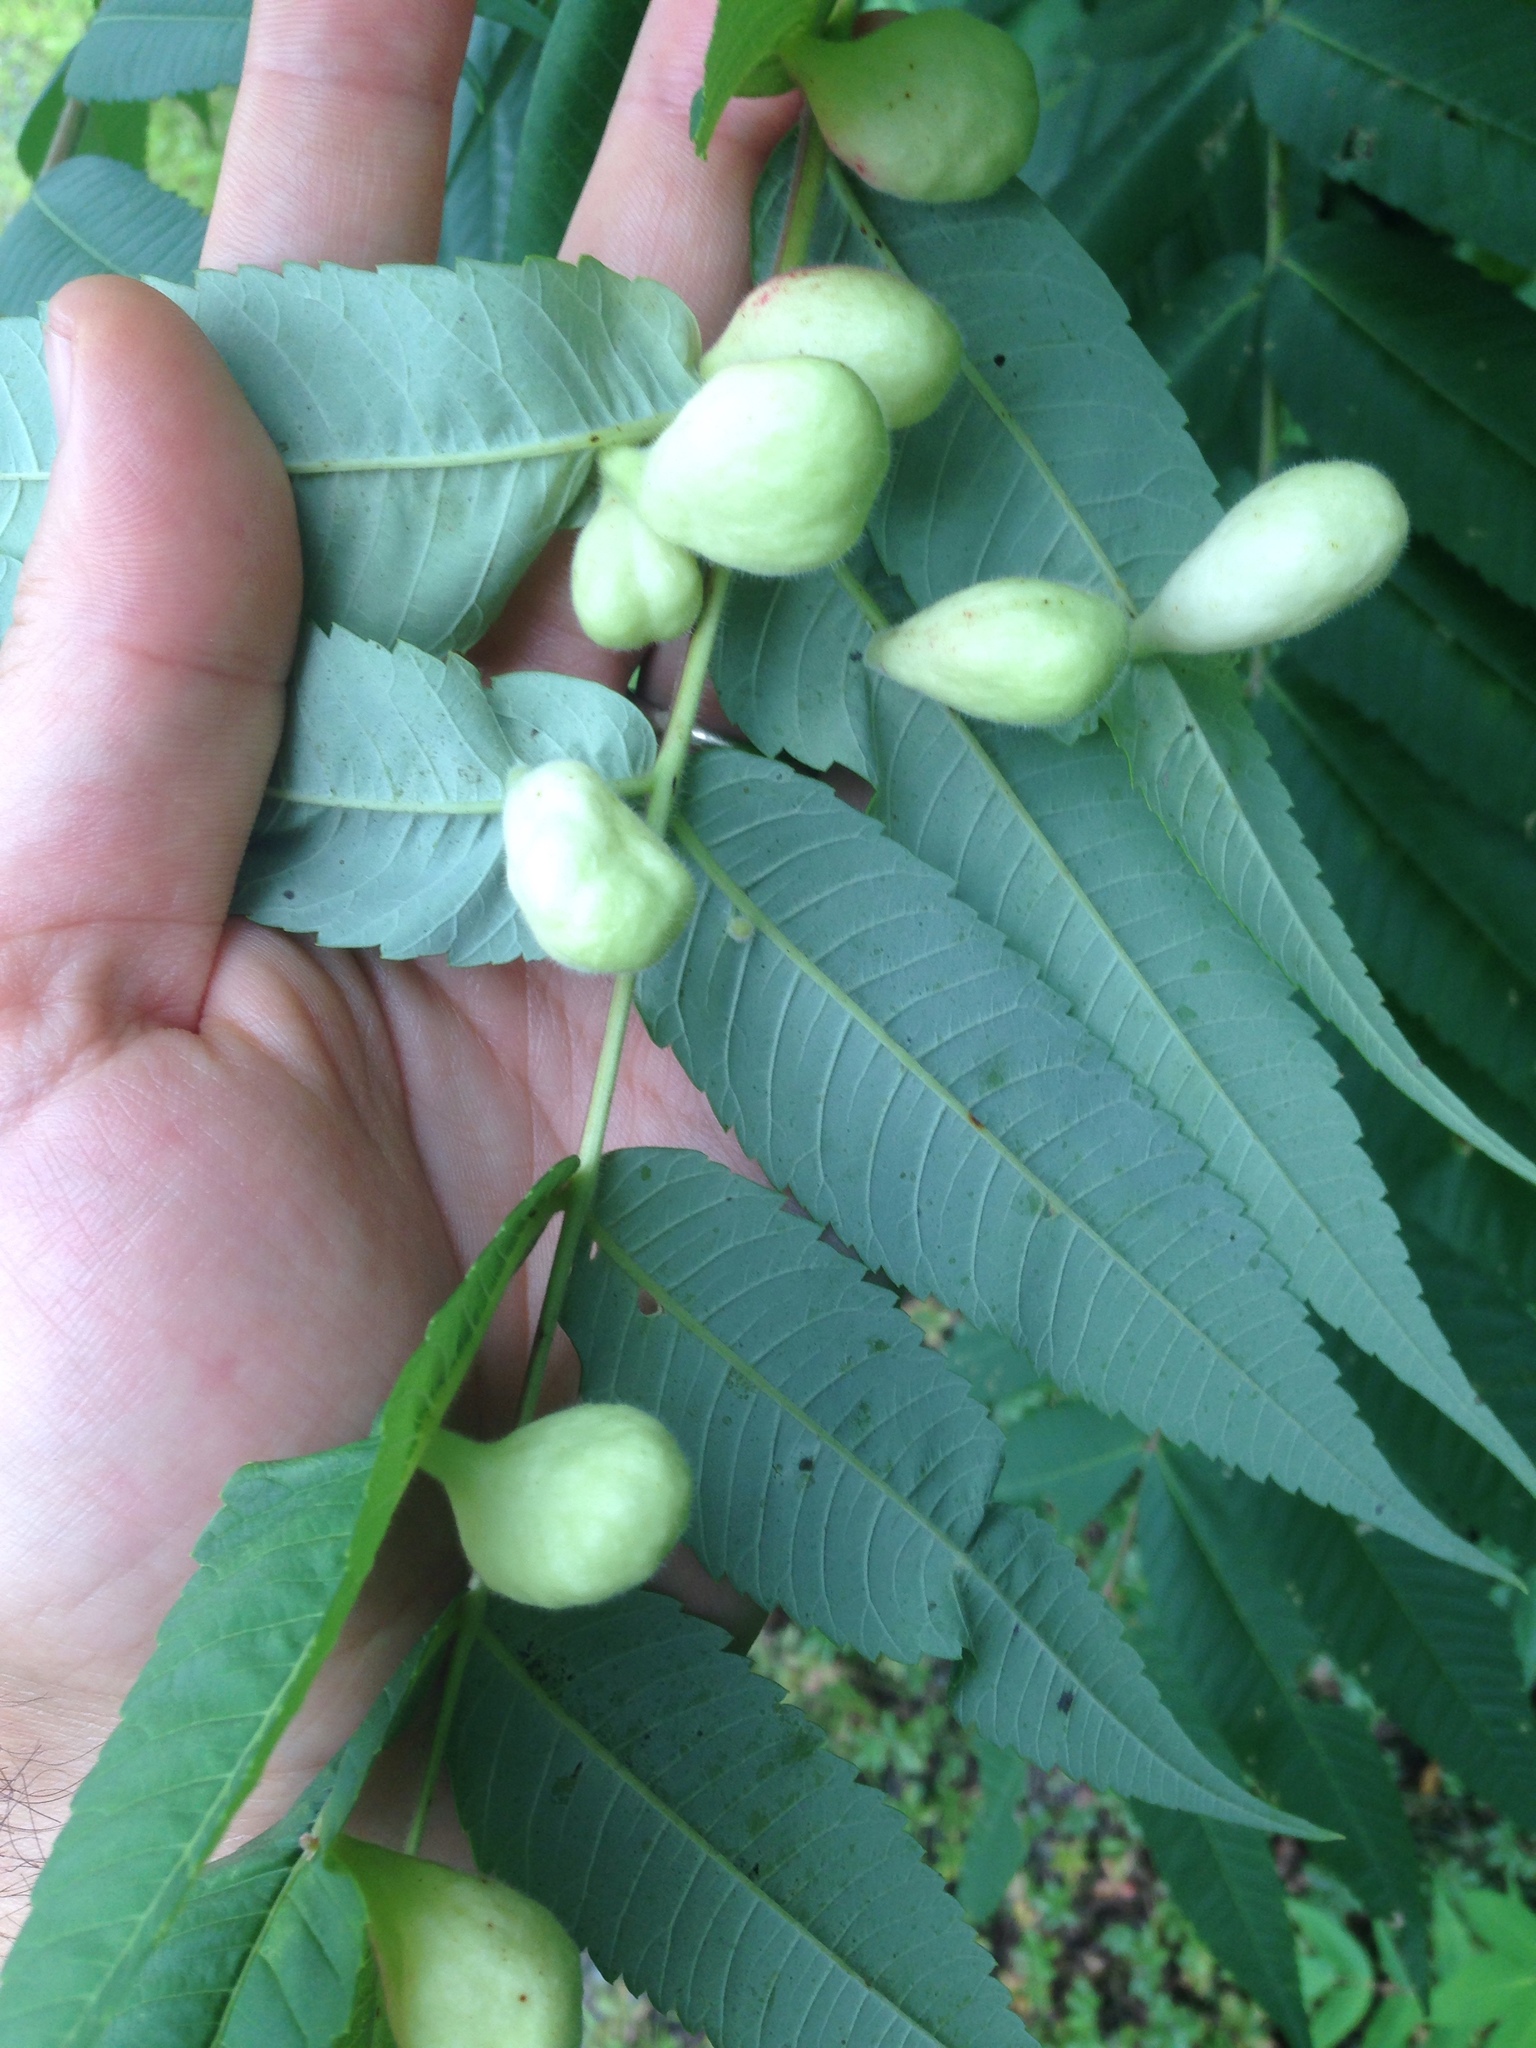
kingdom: Animalia
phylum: Arthropoda
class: Insecta
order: Hemiptera
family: Aphididae
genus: Melaphis
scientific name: Melaphis rhois
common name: Sumac gall aphid
